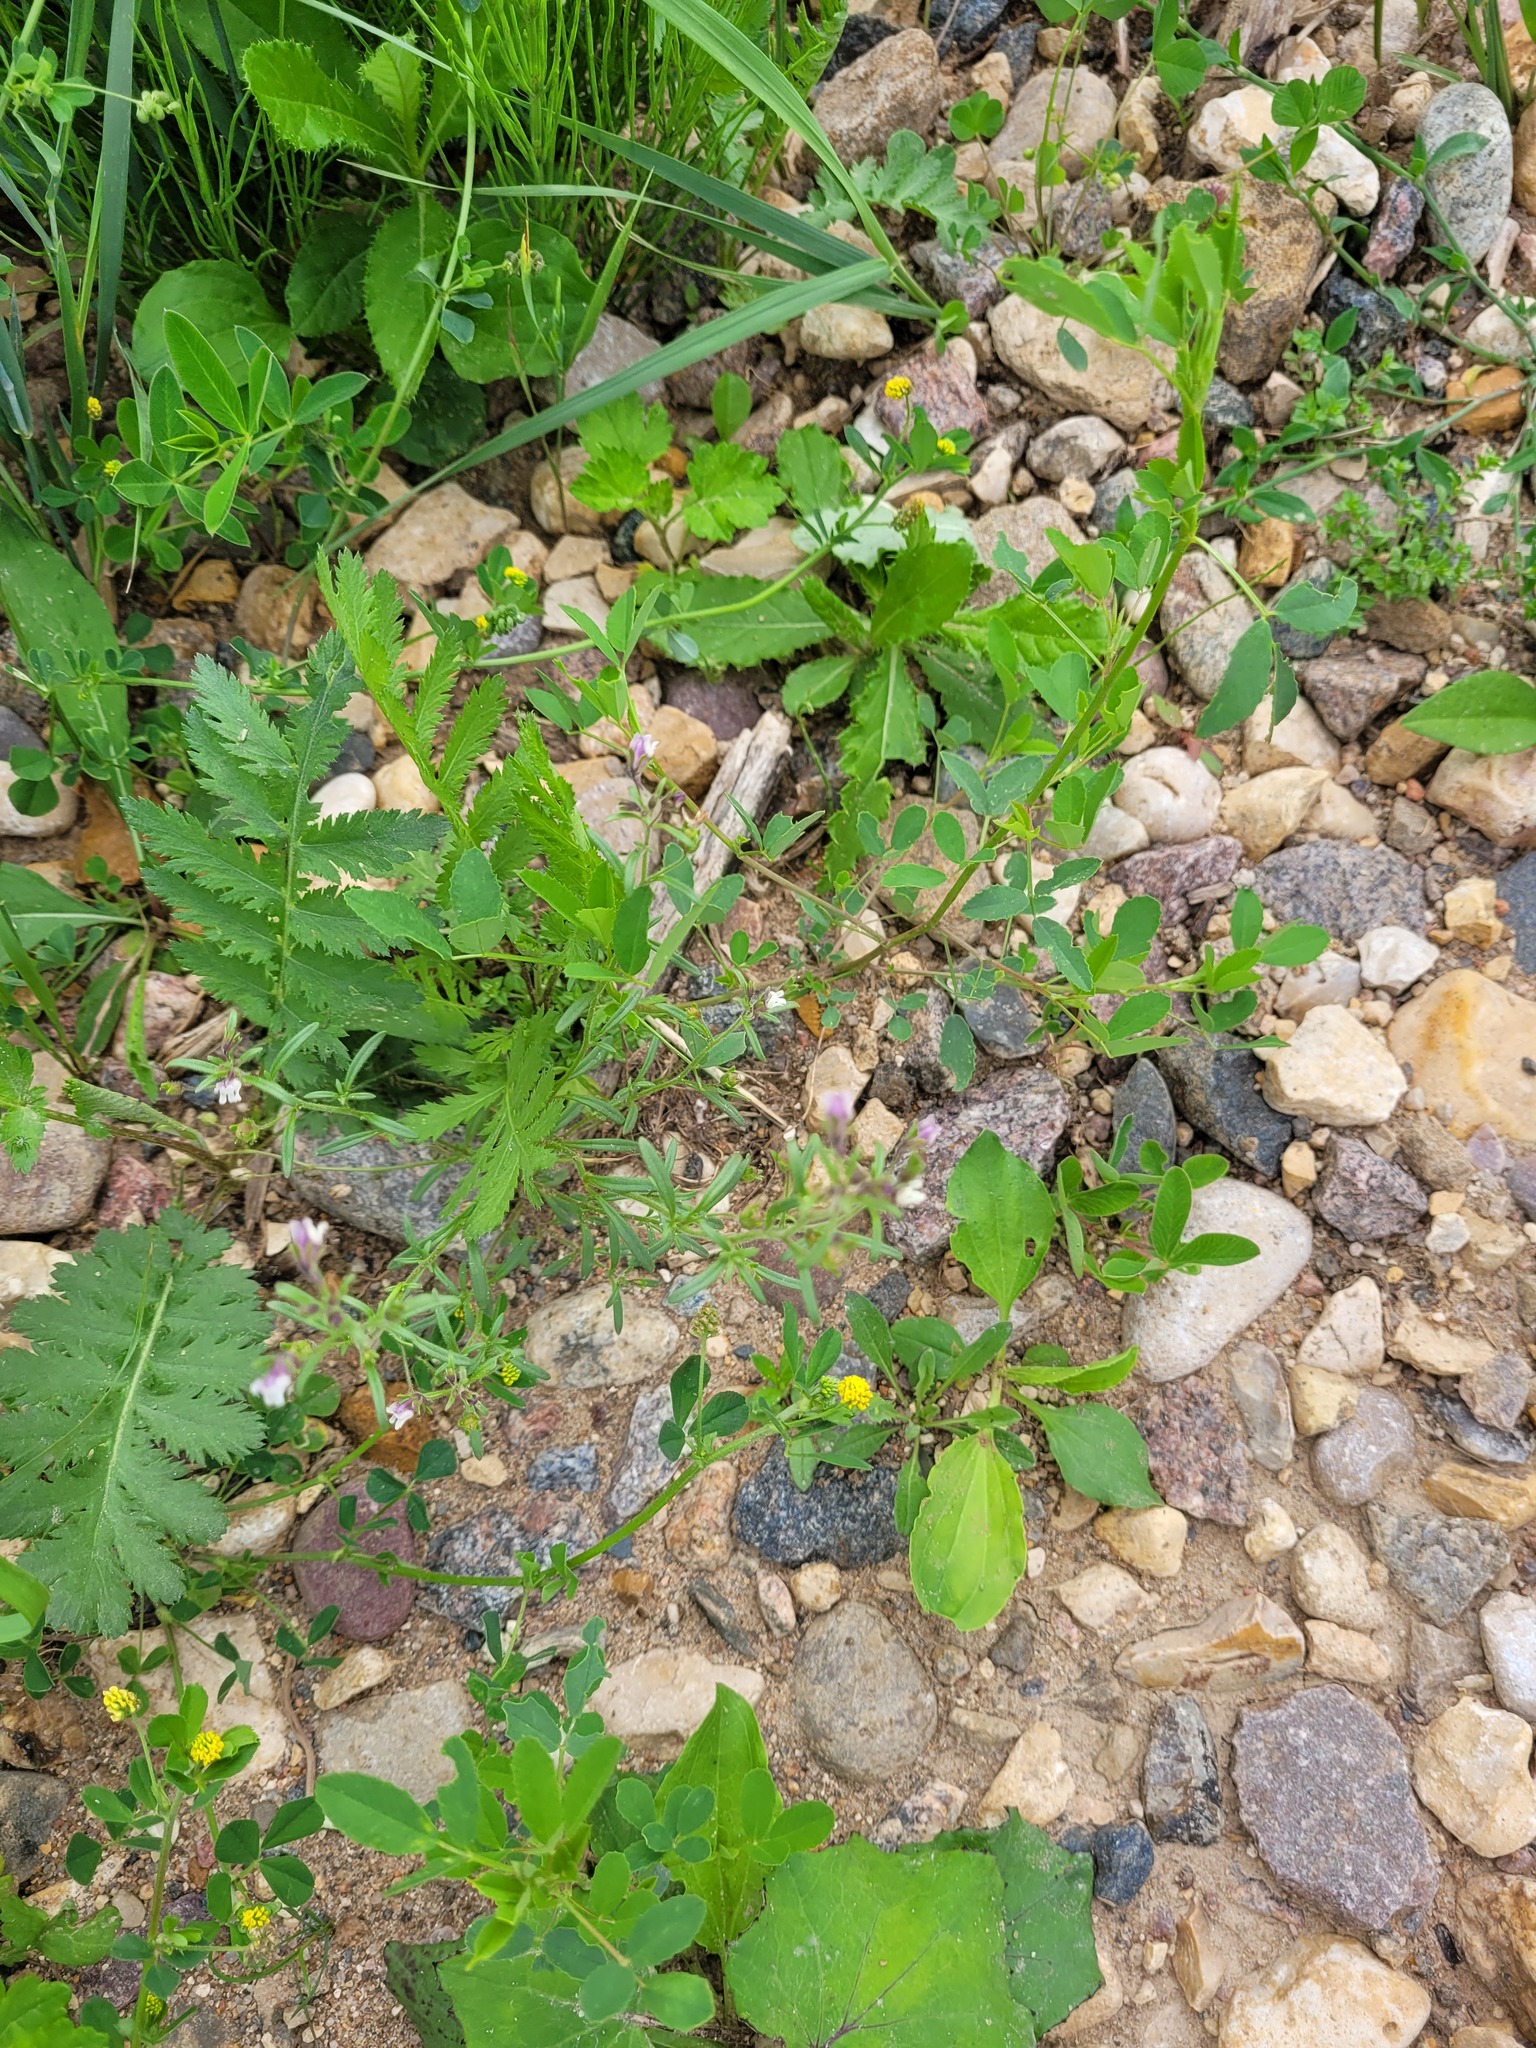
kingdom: Plantae
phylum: Tracheophyta
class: Magnoliopsida
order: Lamiales
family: Plantaginaceae
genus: Chaenorhinum
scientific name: Chaenorhinum minus
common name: Dwarf snapdragon
